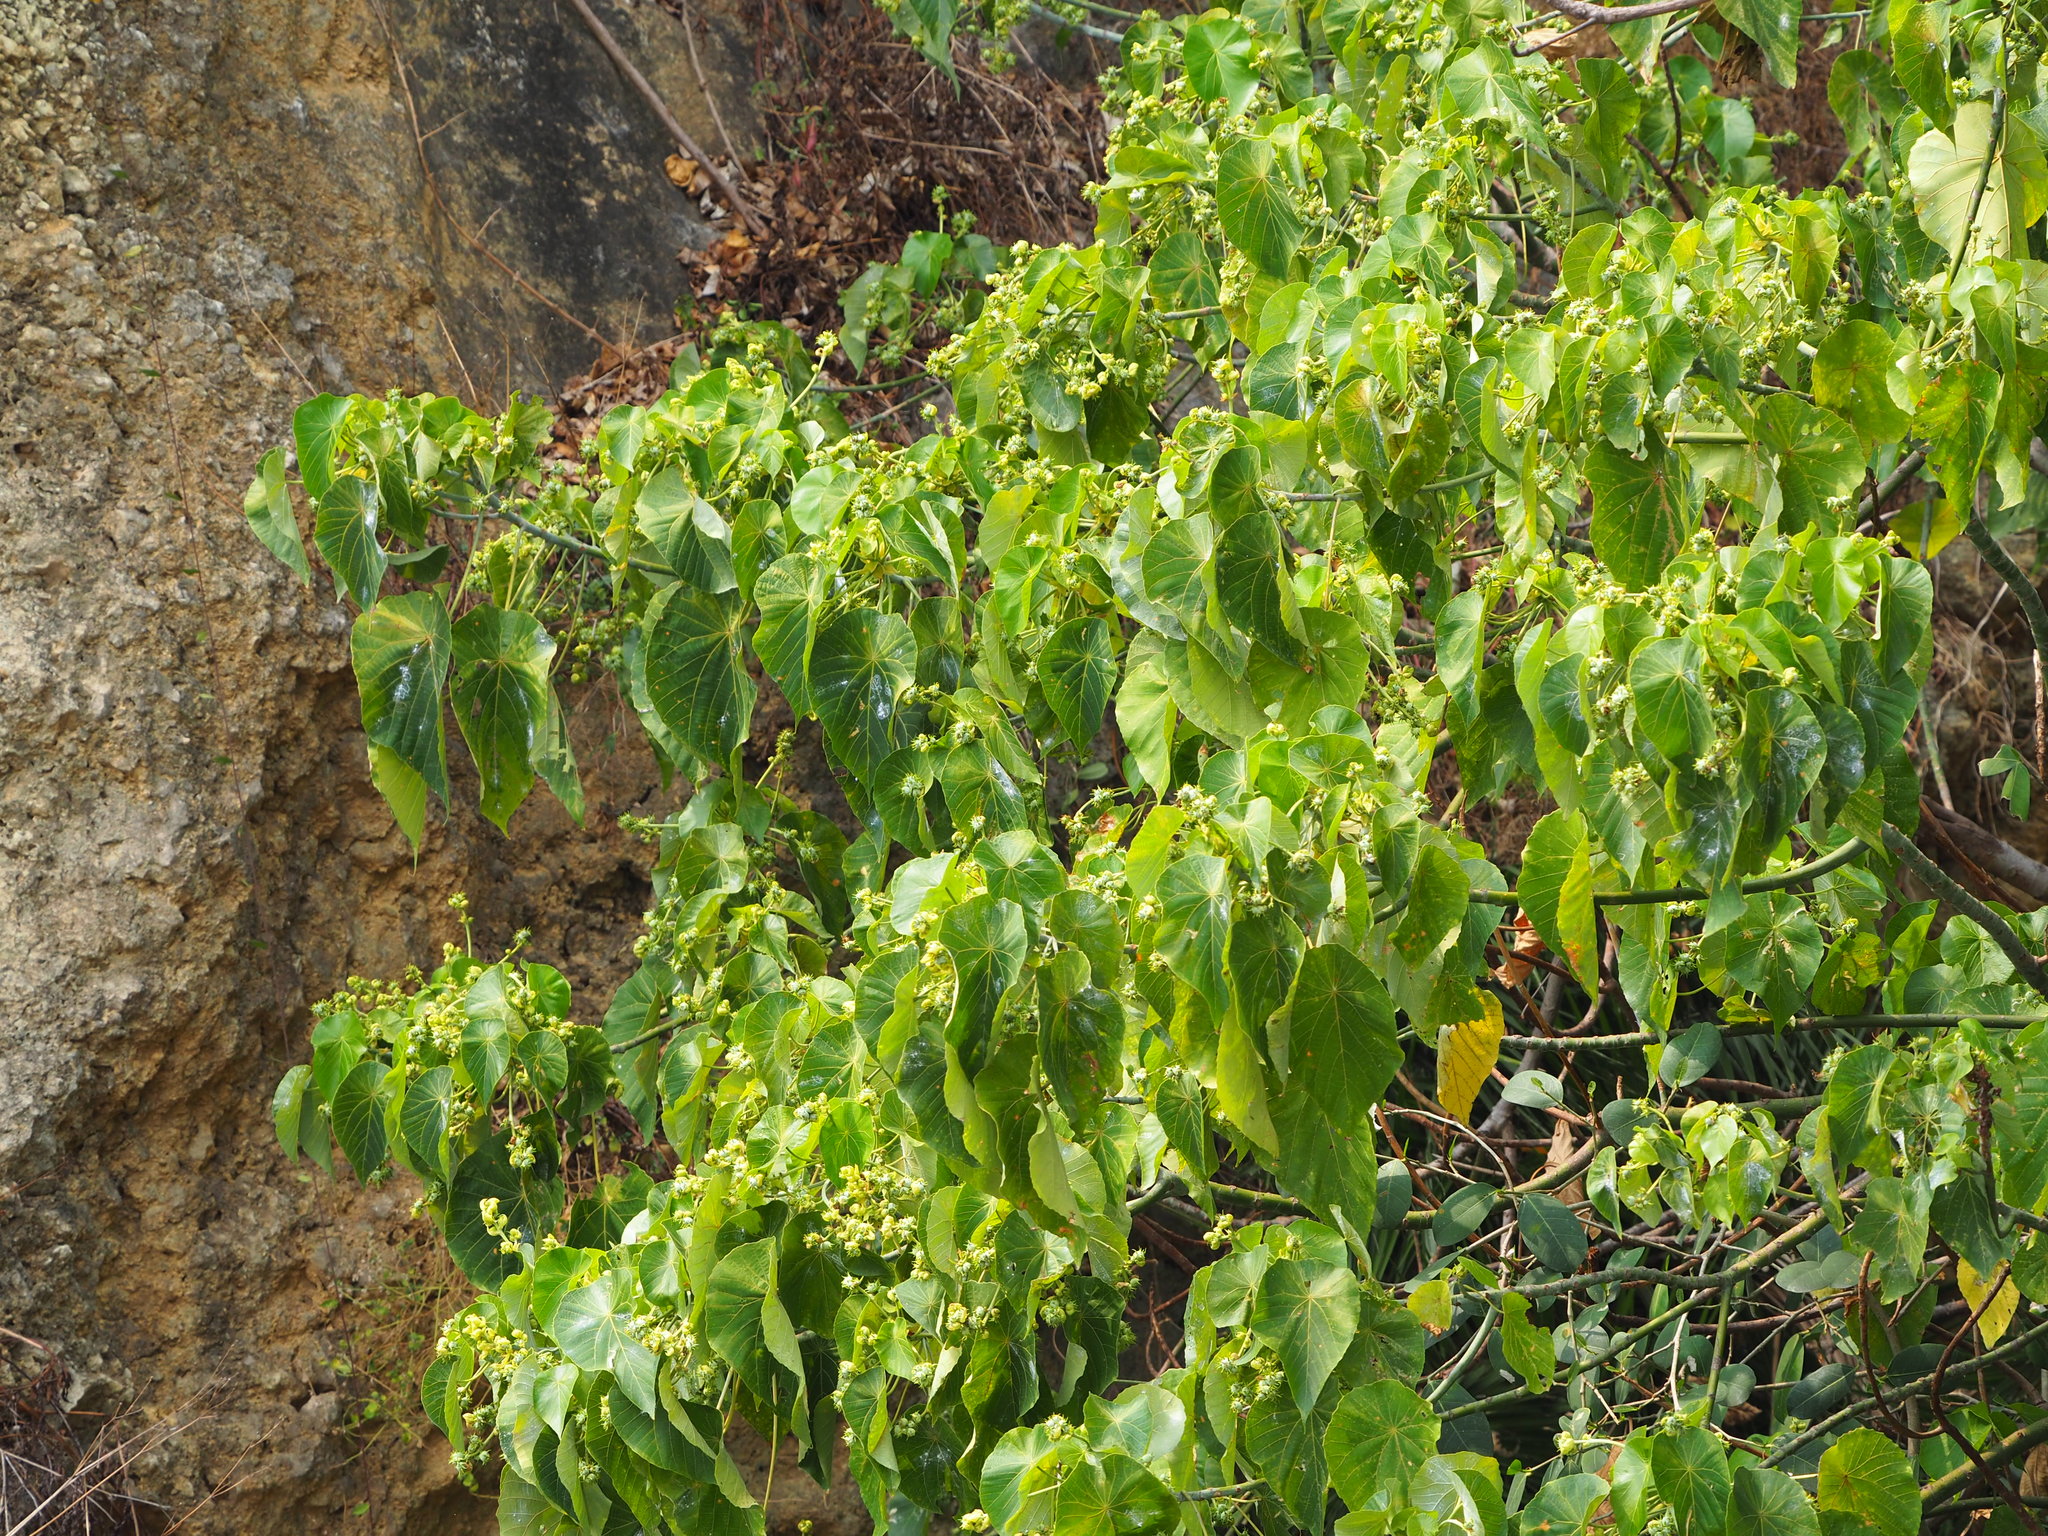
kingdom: Plantae
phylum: Tracheophyta
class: Magnoliopsida
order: Malpighiales
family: Euphorbiaceae
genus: Macaranga
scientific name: Macaranga tanarius
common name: Parasol leaf tree
